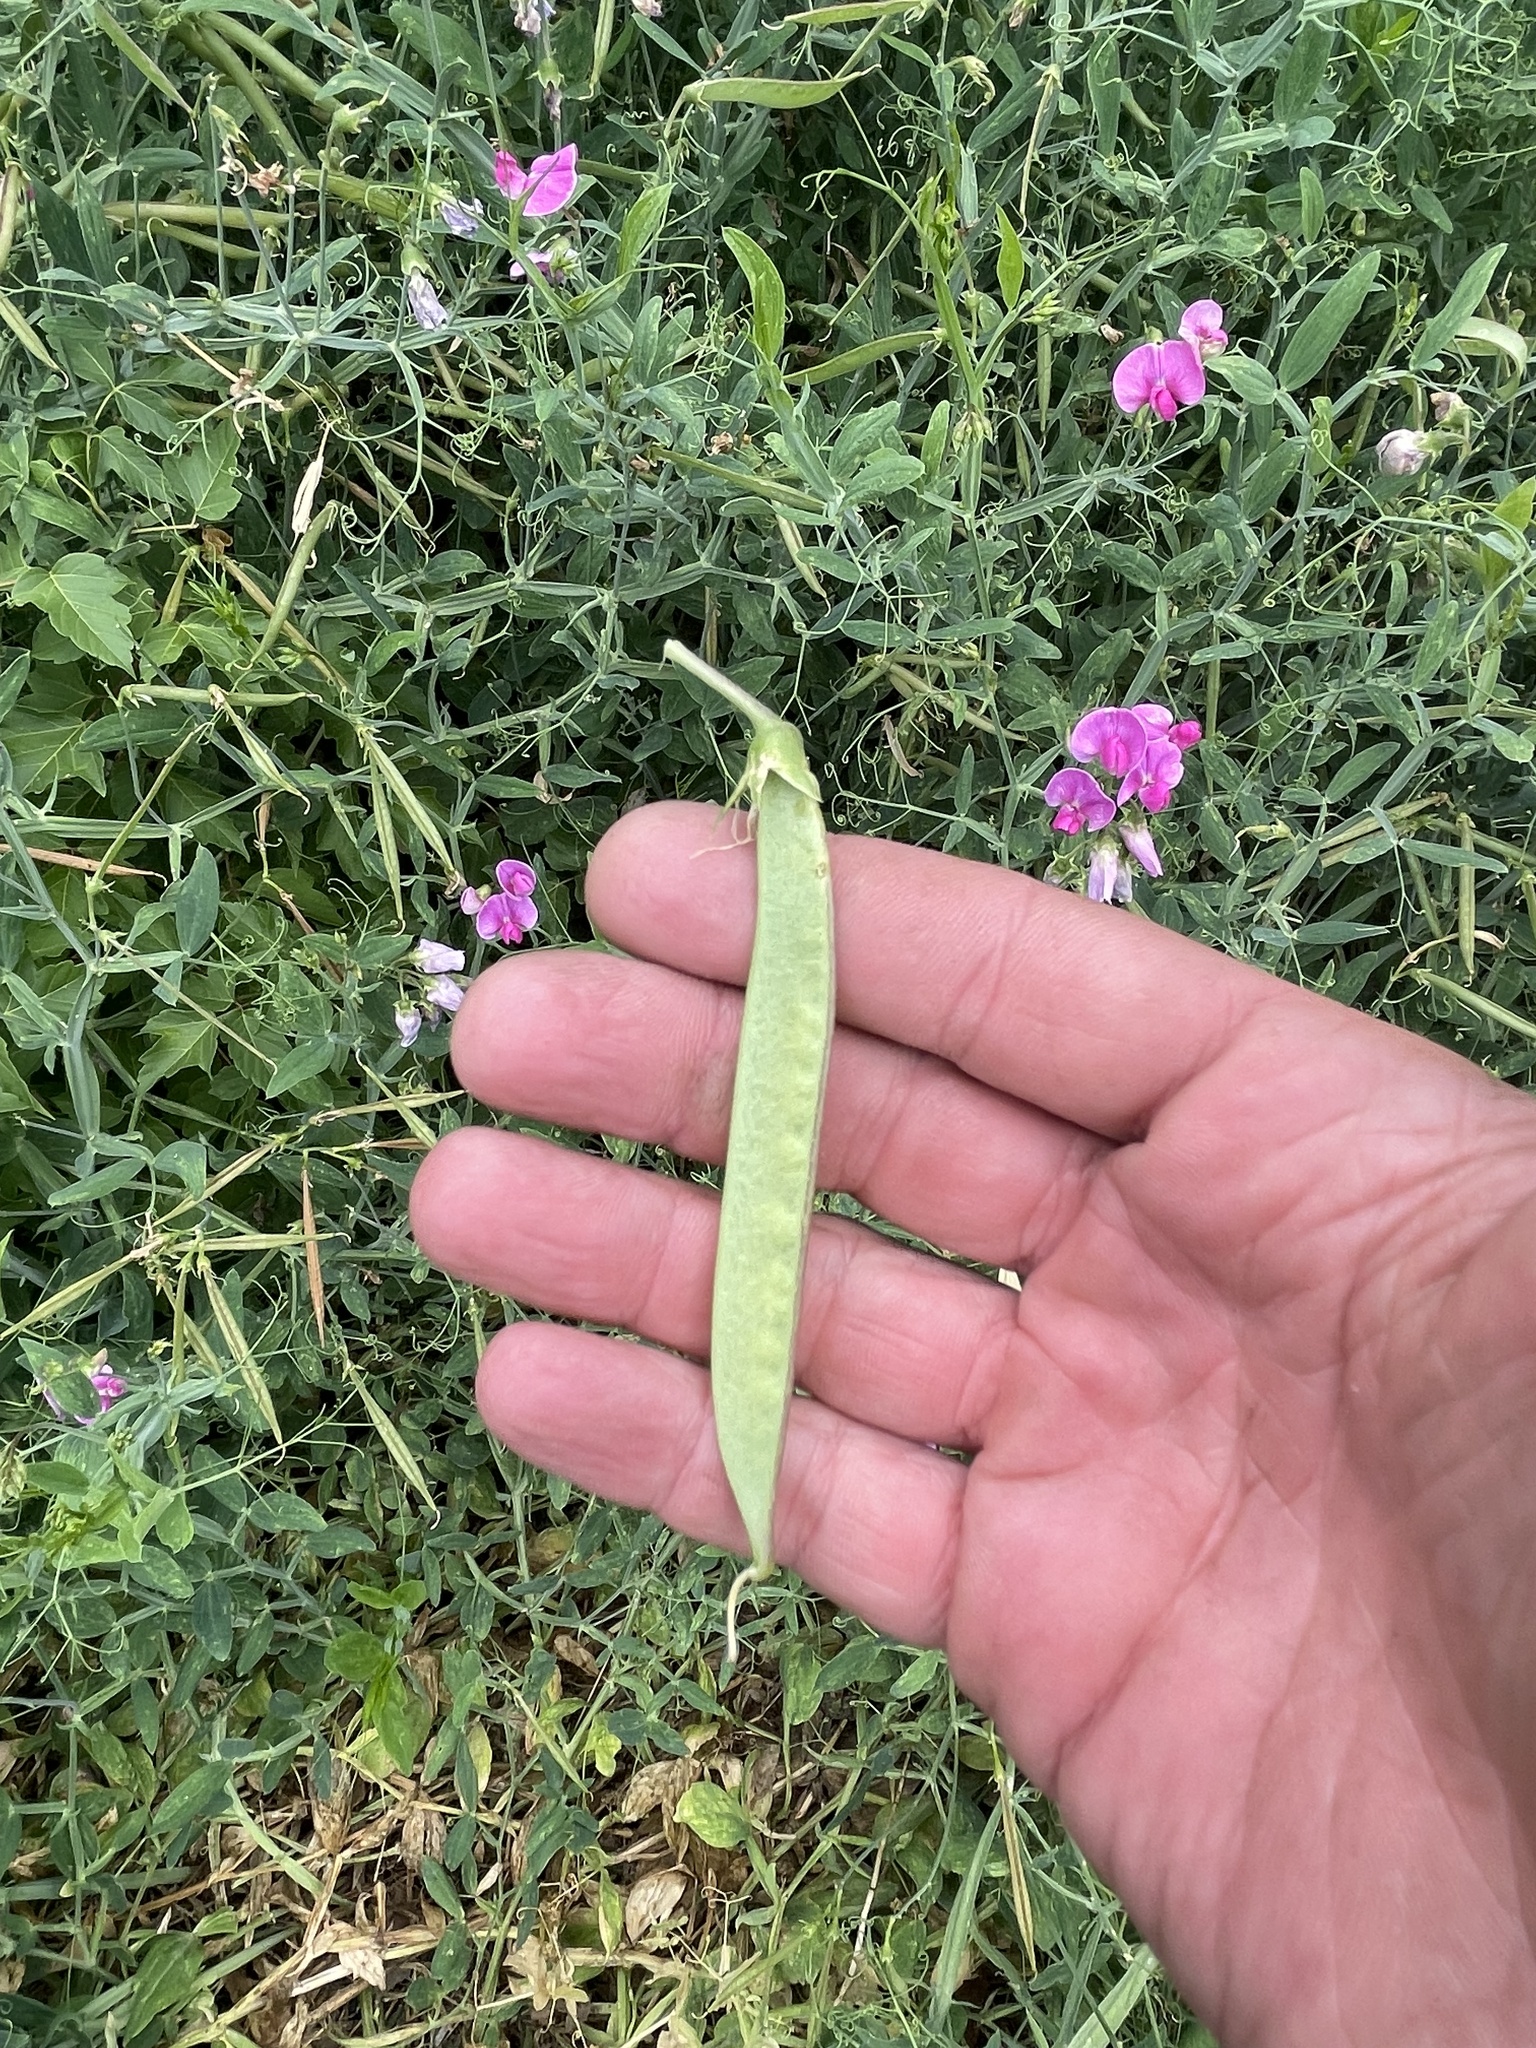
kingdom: Plantae
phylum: Tracheophyta
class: Magnoliopsida
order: Fabales
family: Fabaceae
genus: Lathyrus
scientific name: Lathyrus latifolius
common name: Perennial pea
